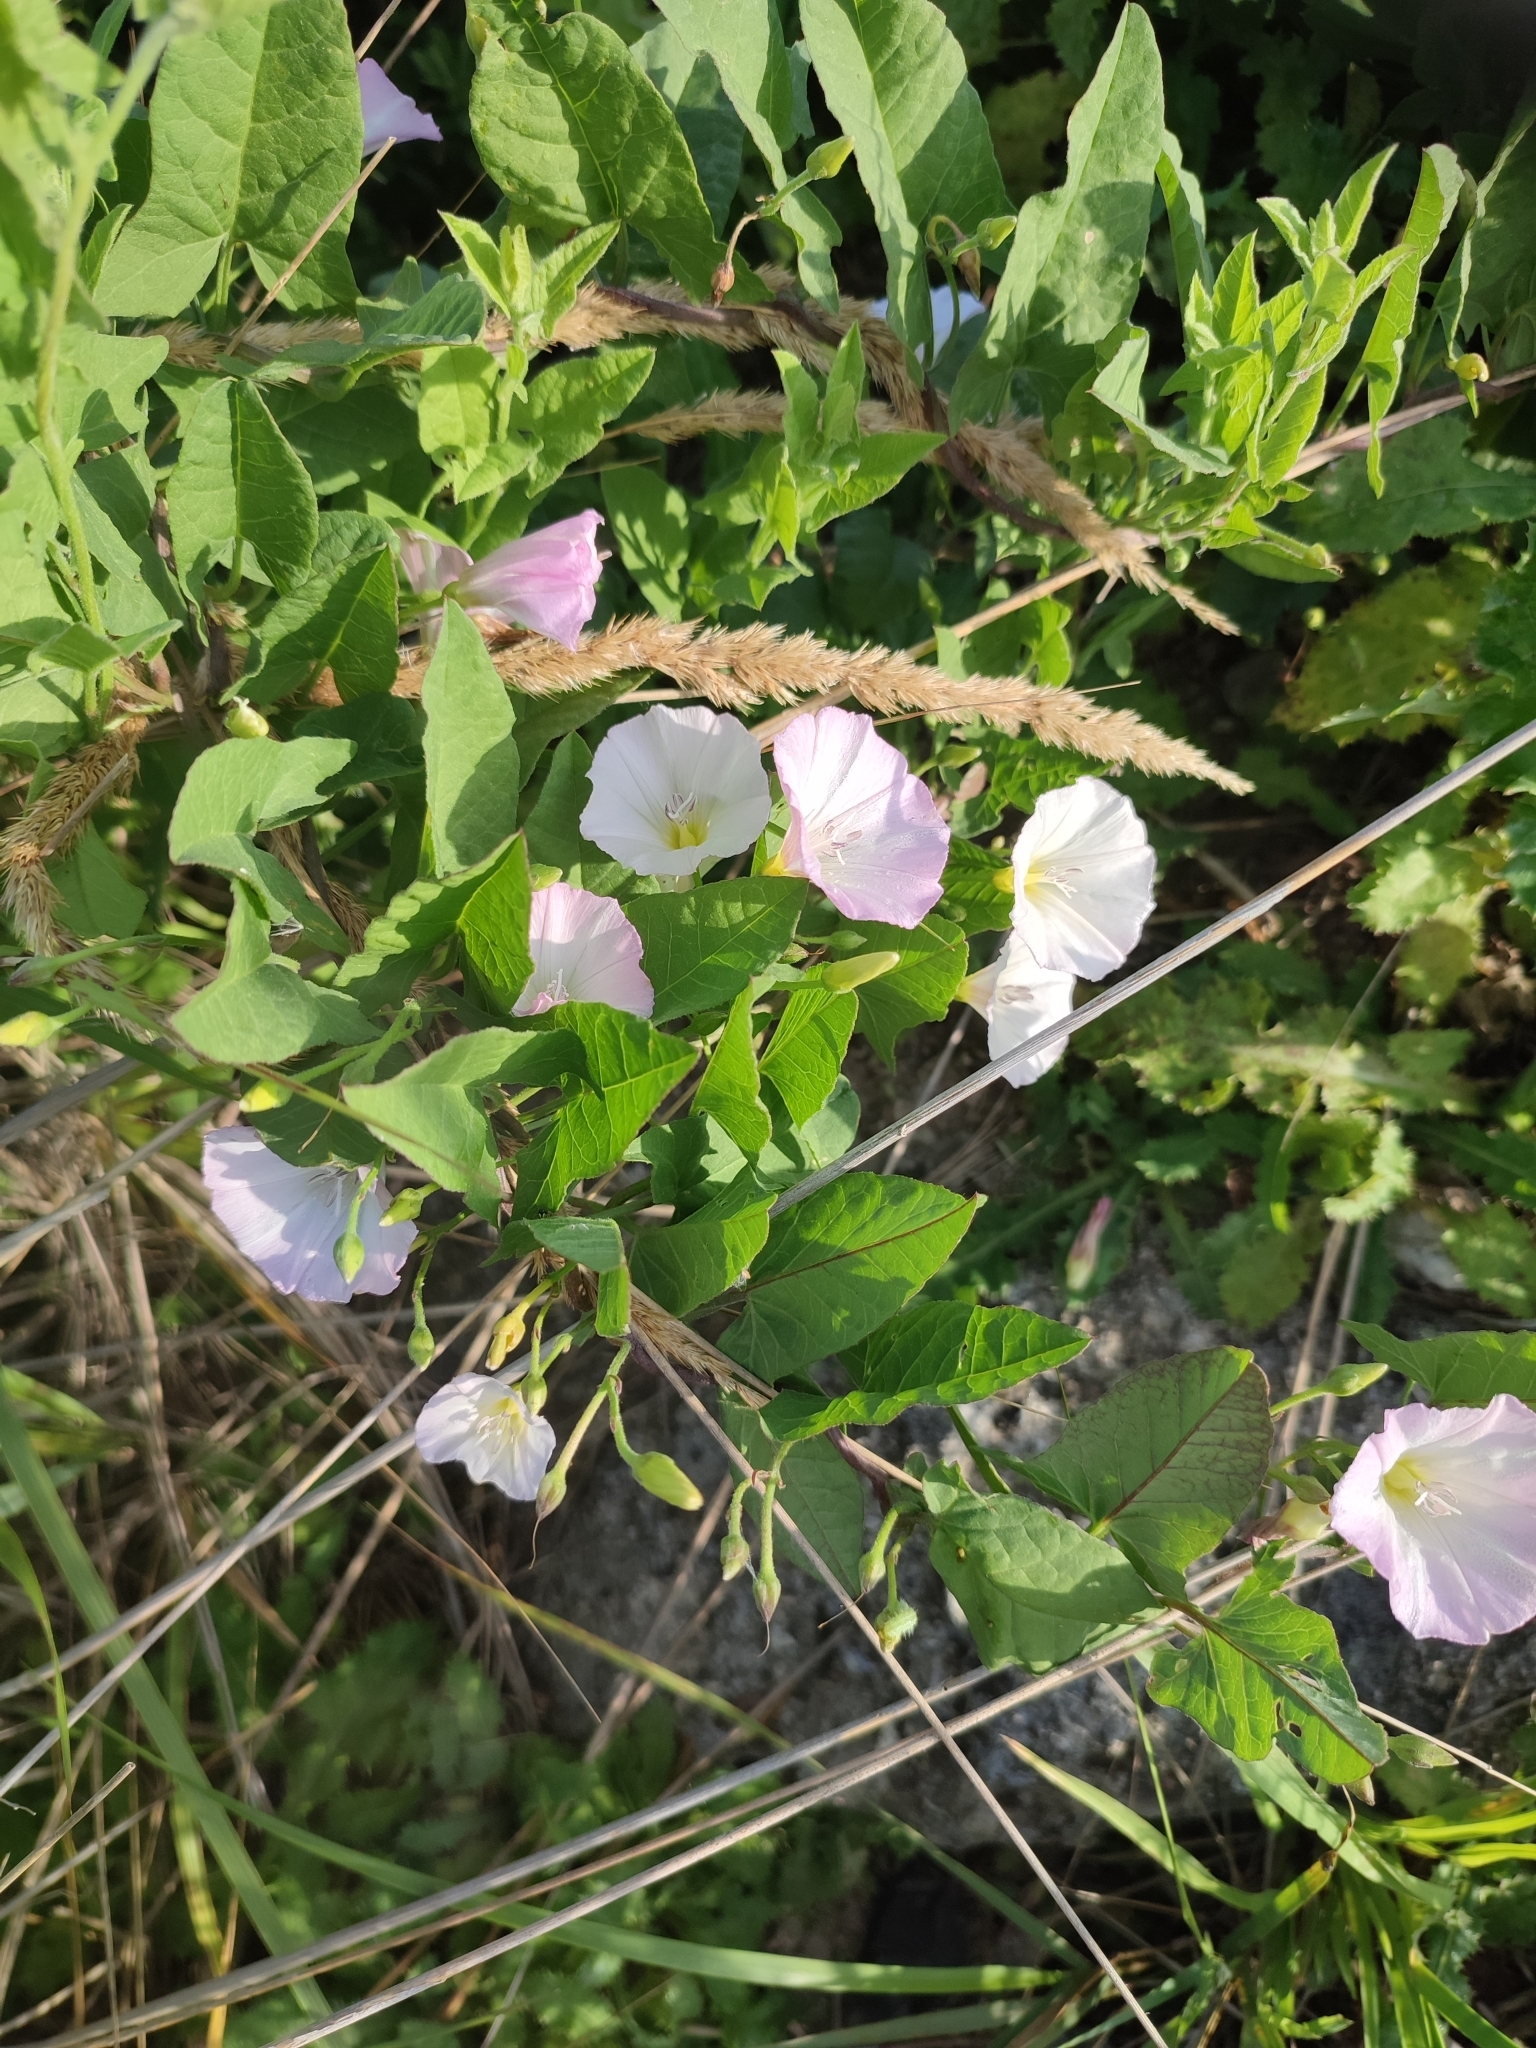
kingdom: Plantae
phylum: Tracheophyta
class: Magnoliopsida
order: Solanales
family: Convolvulaceae
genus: Convolvulus
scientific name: Convolvulus arvensis
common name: Field bindweed
